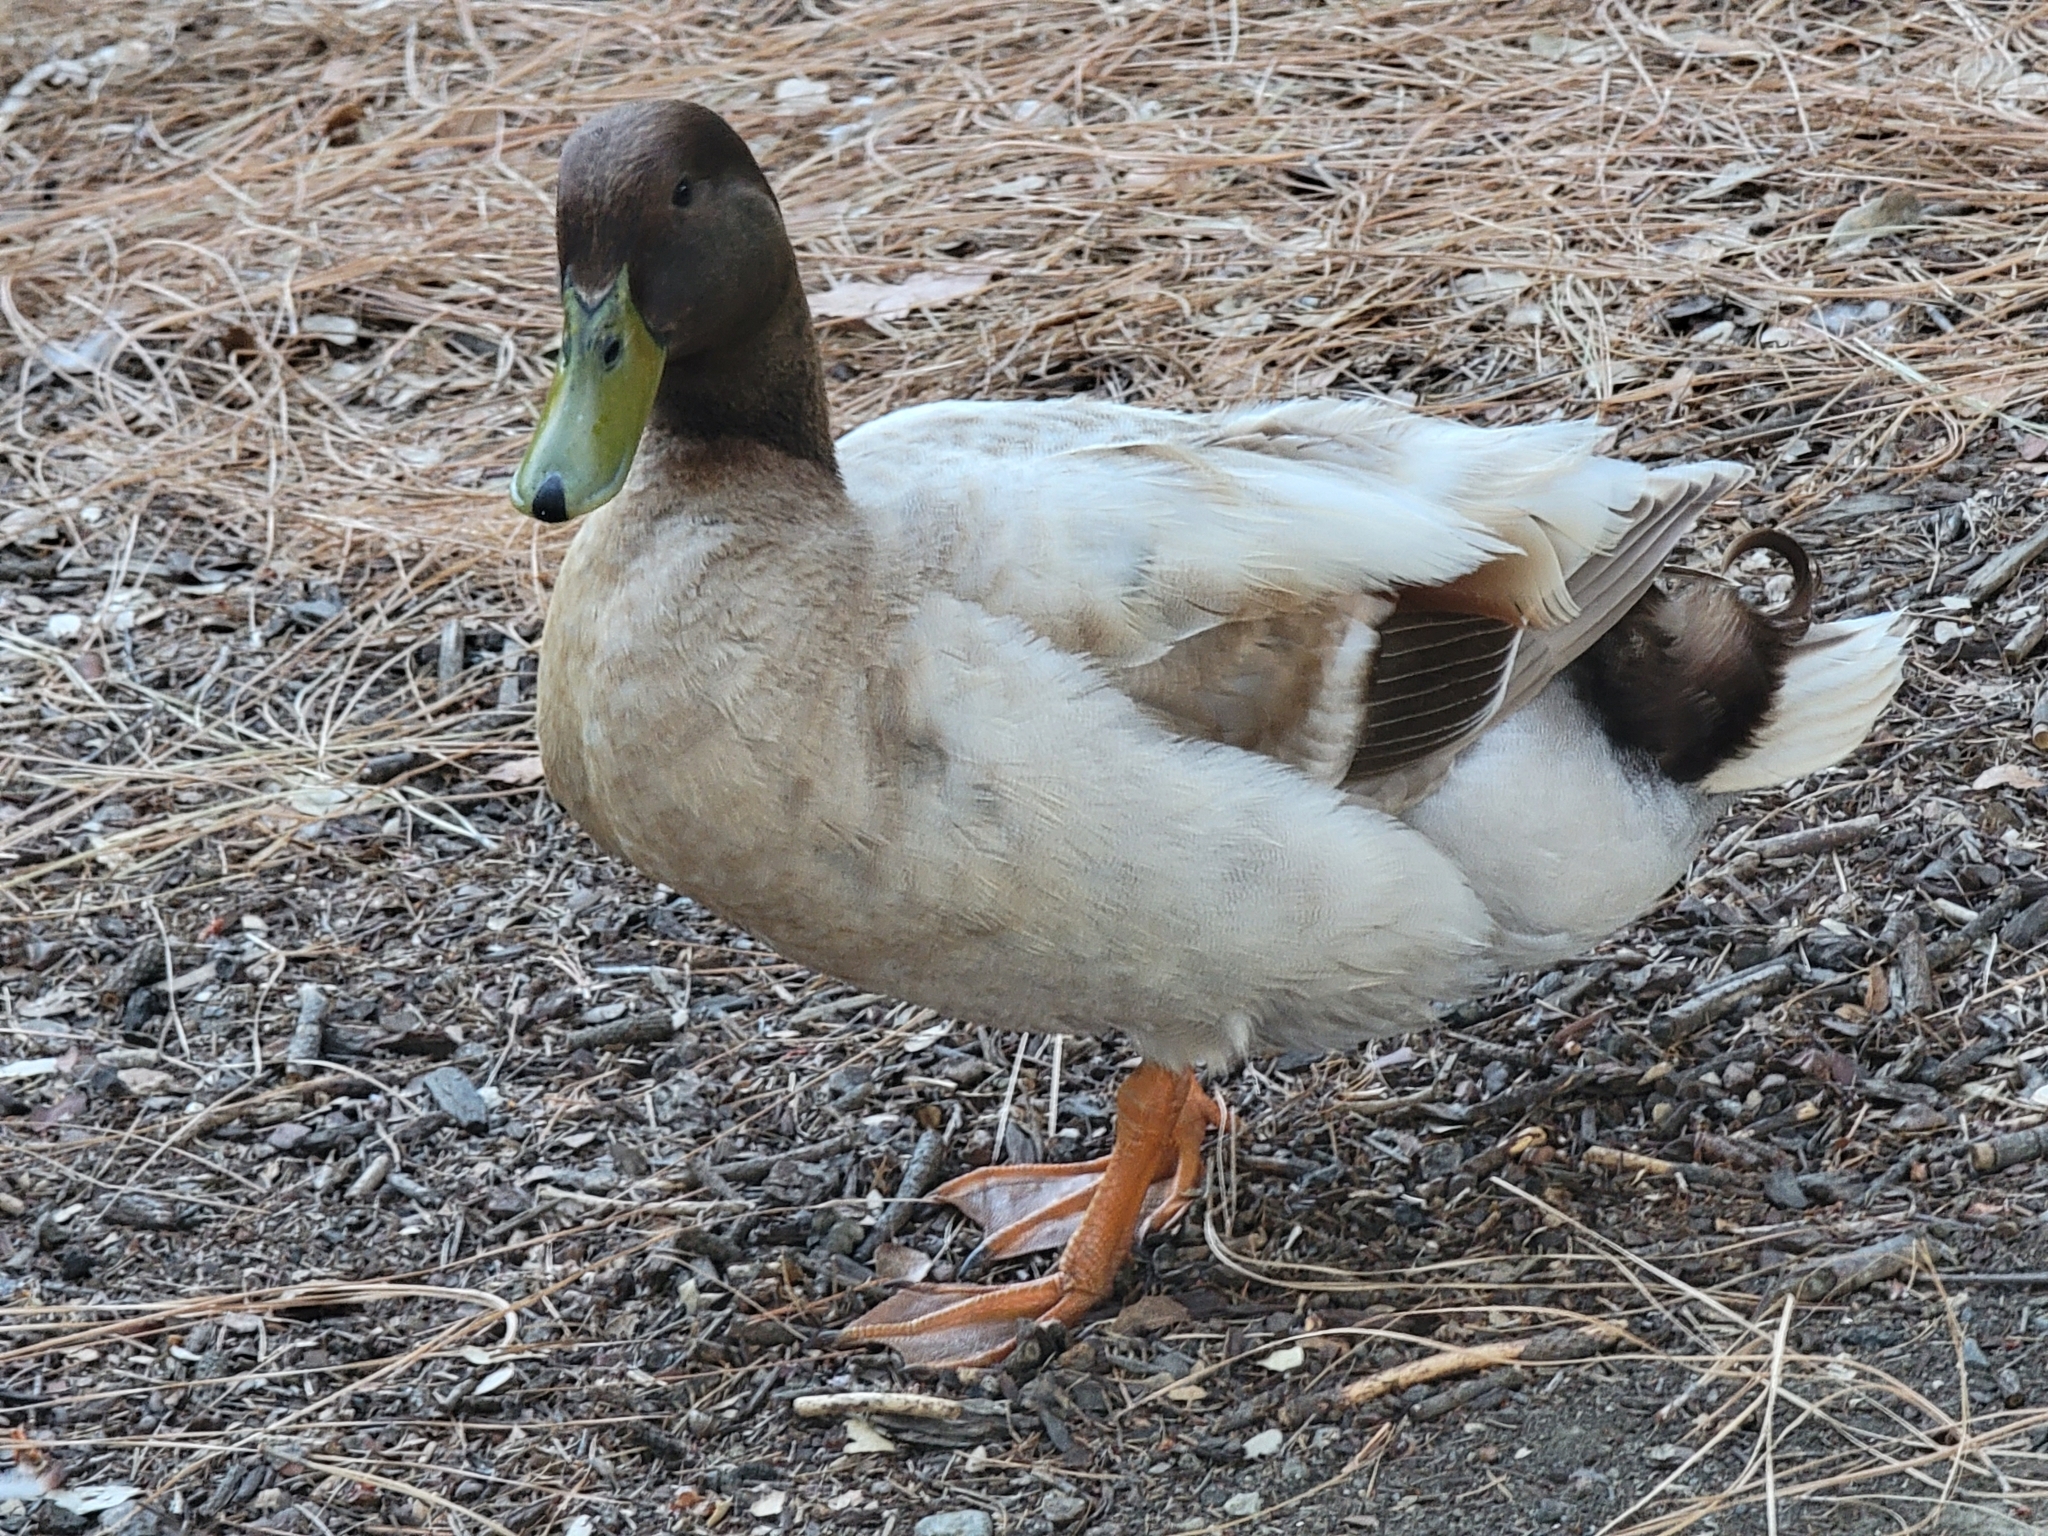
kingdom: Animalia
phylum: Chordata
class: Aves
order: Anseriformes
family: Anatidae
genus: Anas
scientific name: Anas platyrhynchos
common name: Mallard
